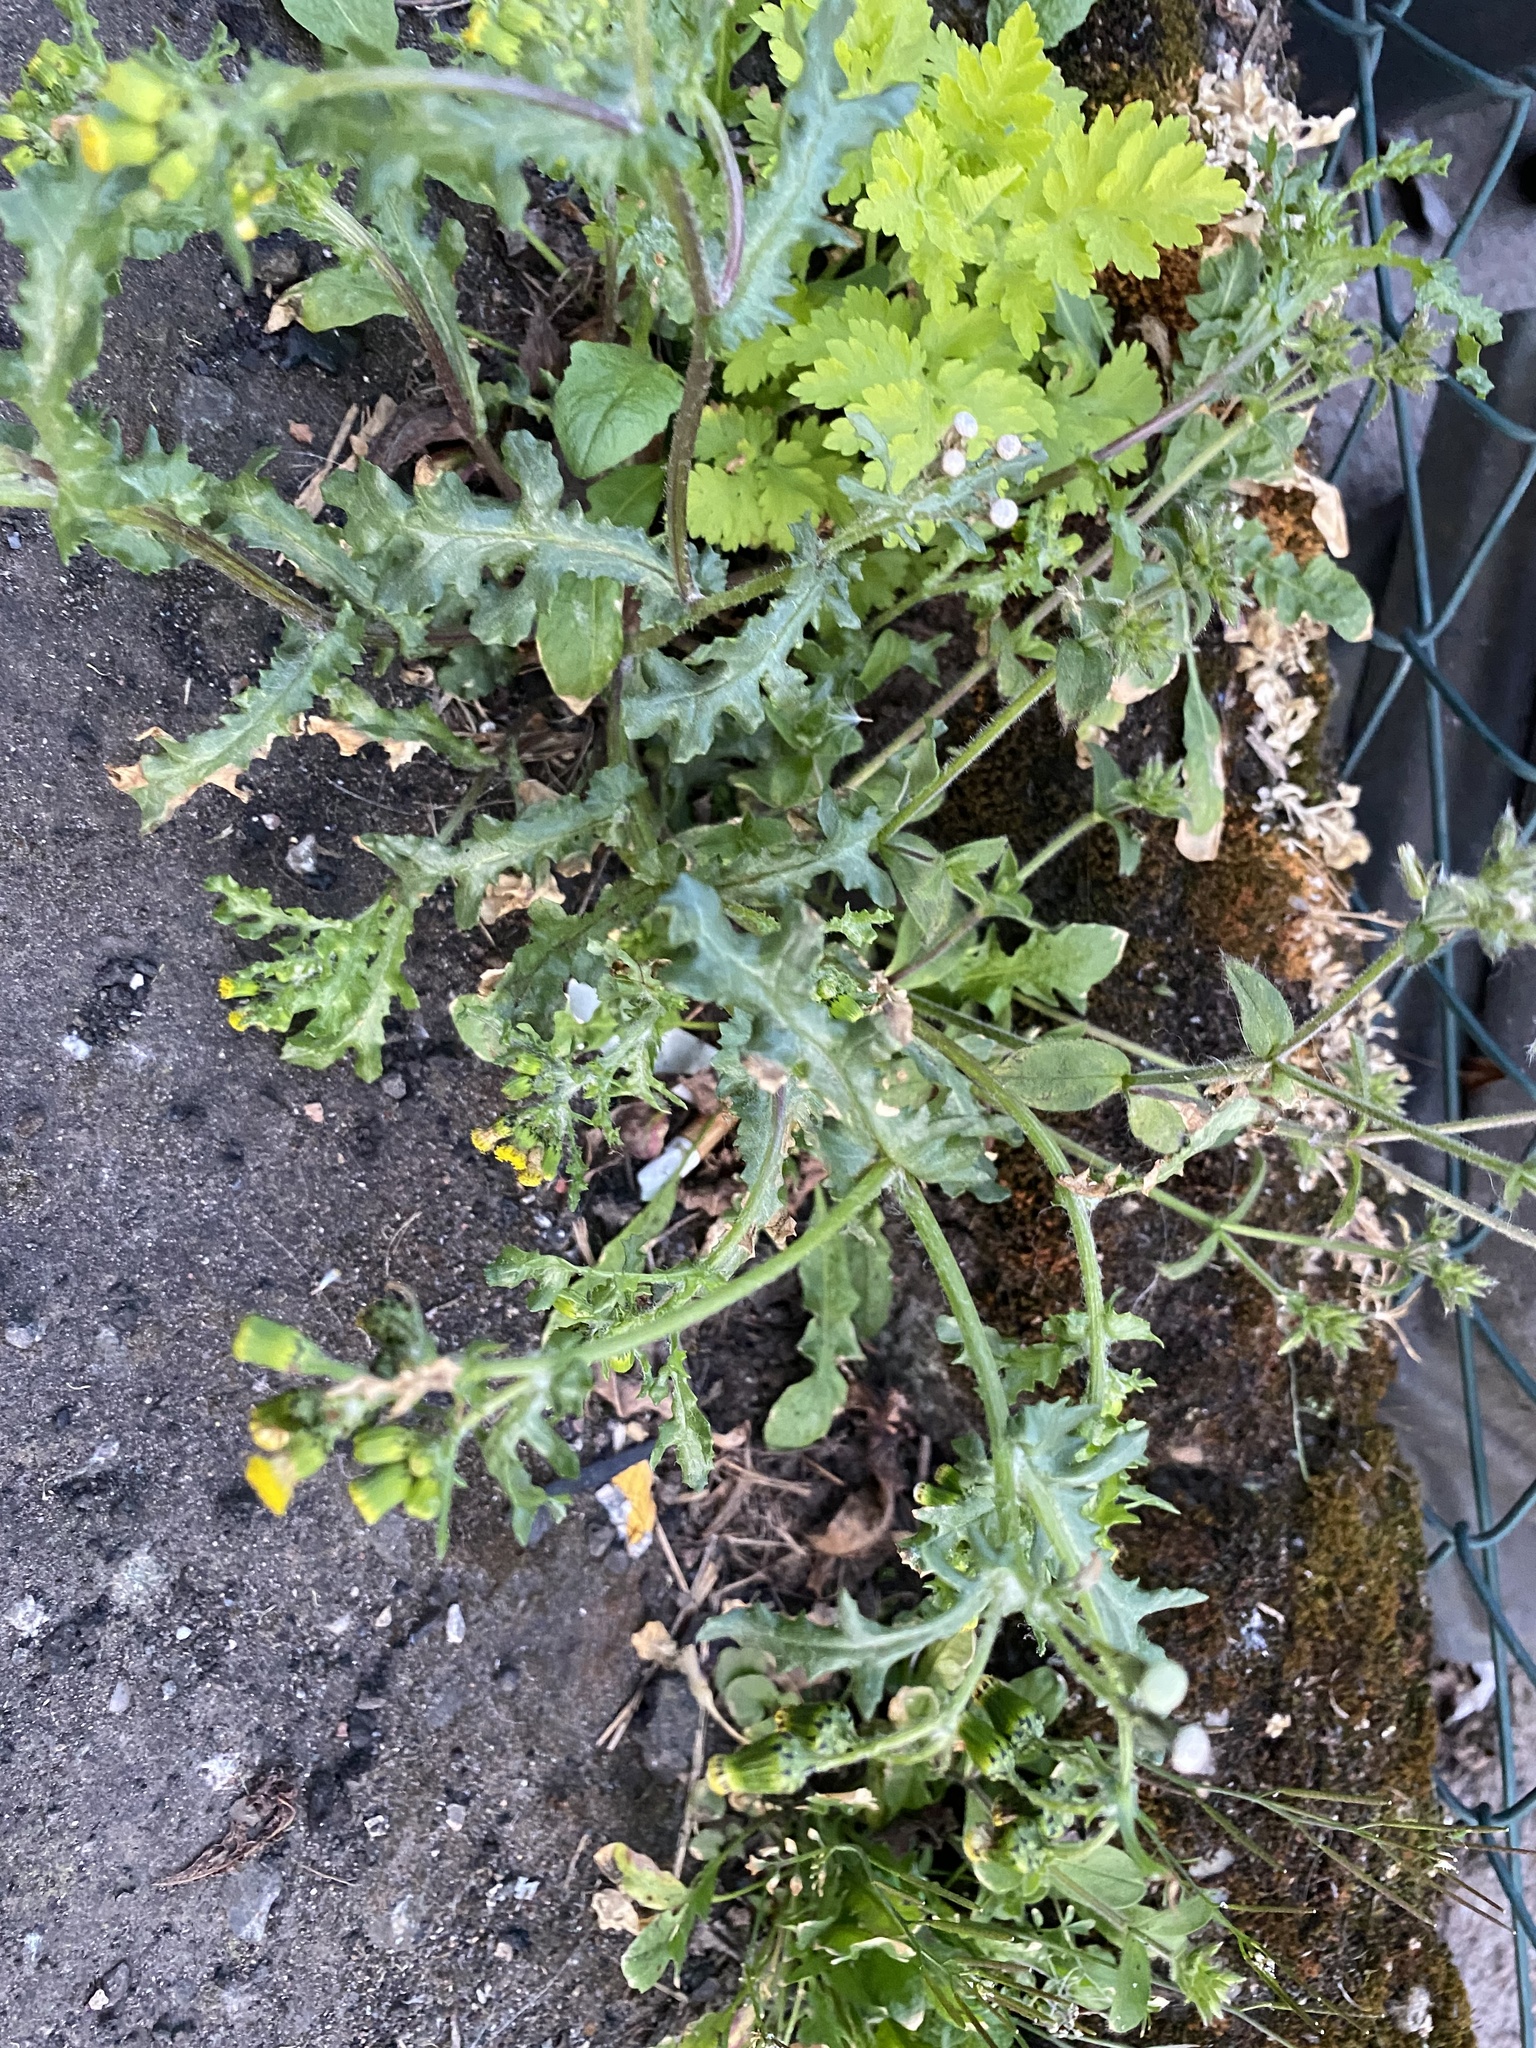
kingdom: Plantae
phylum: Tracheophyta
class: Magnoliopsida
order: Asterales
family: Asteraceae
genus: Senecio
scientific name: Senecio vulgaris
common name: Old-man-in-the-spring
